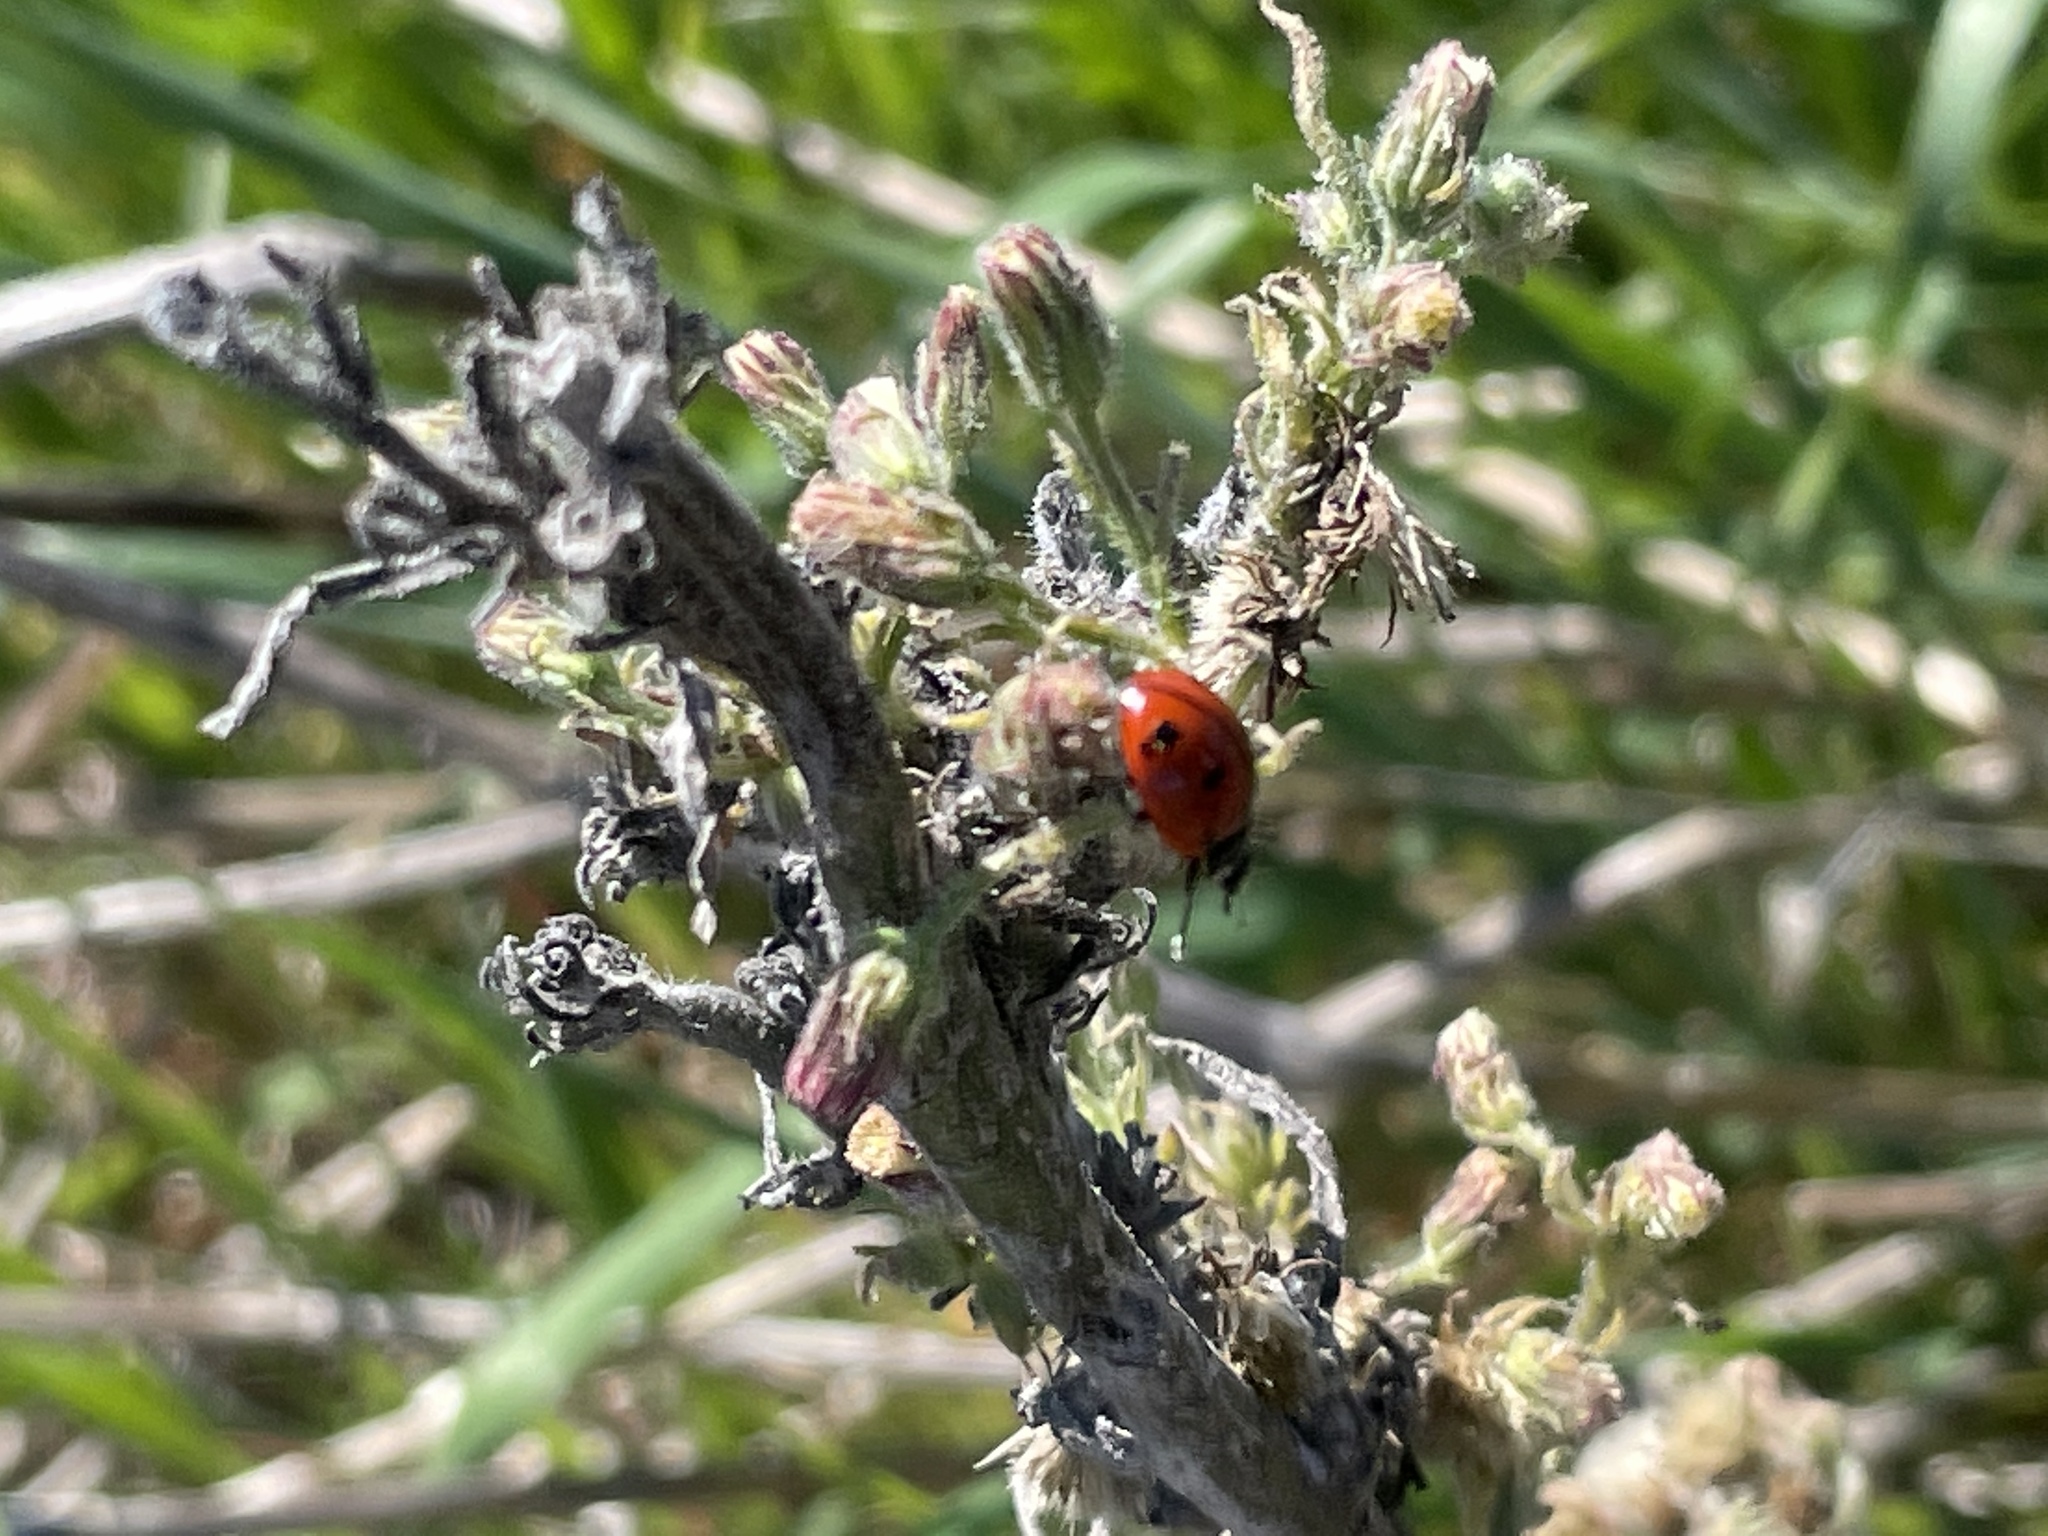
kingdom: Animalia
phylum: Arthropoda
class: Insecta
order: Coleoptera
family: Coccinellidae
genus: Coccinella
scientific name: Coccinella californica
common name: Lady beetle
